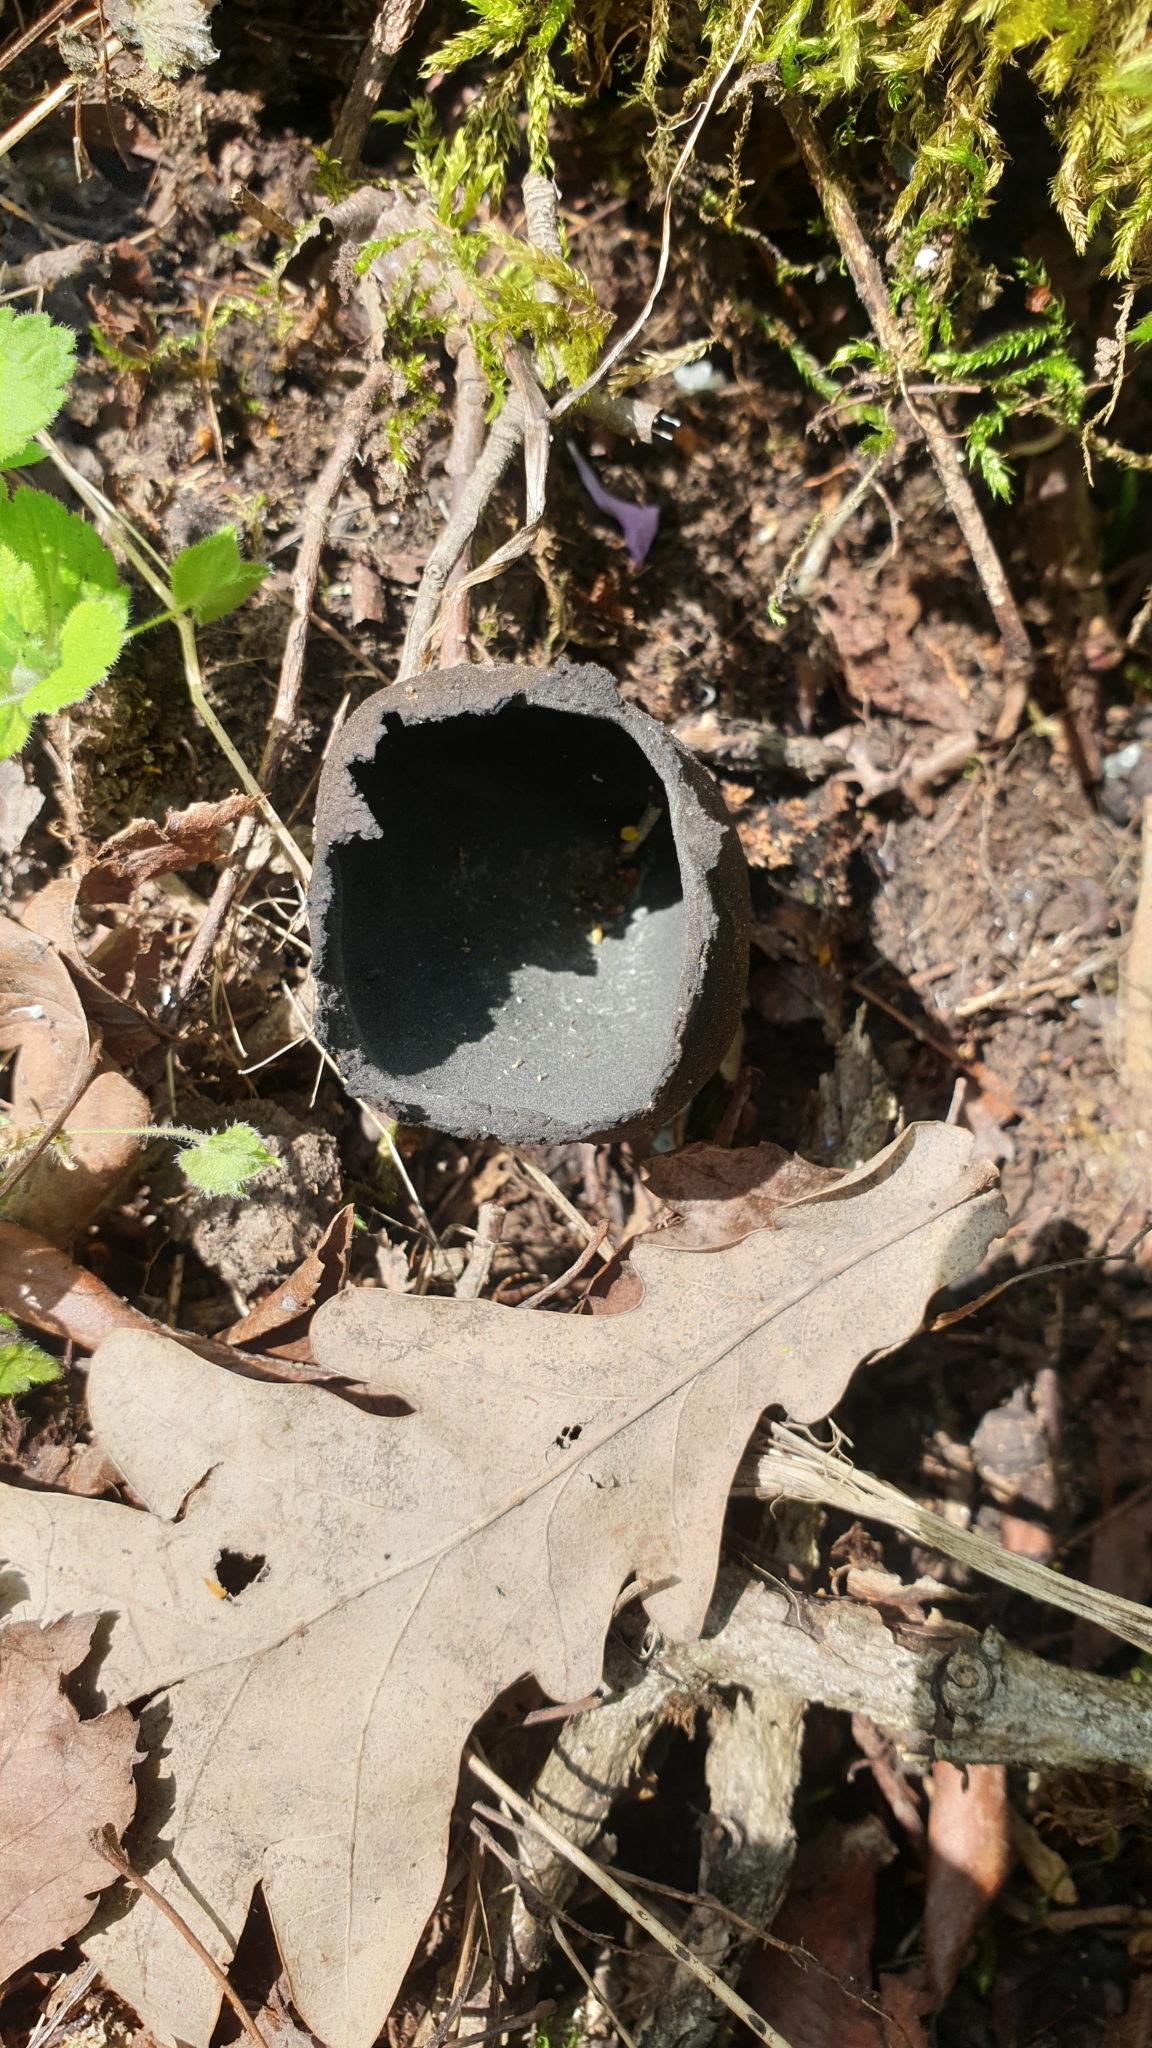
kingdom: Fungi
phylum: Ascomycota
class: Pezizomycetes
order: Pezizales
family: Sarcosomataceae
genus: Urnula
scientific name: Urnula craterium
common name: Devil's urn
